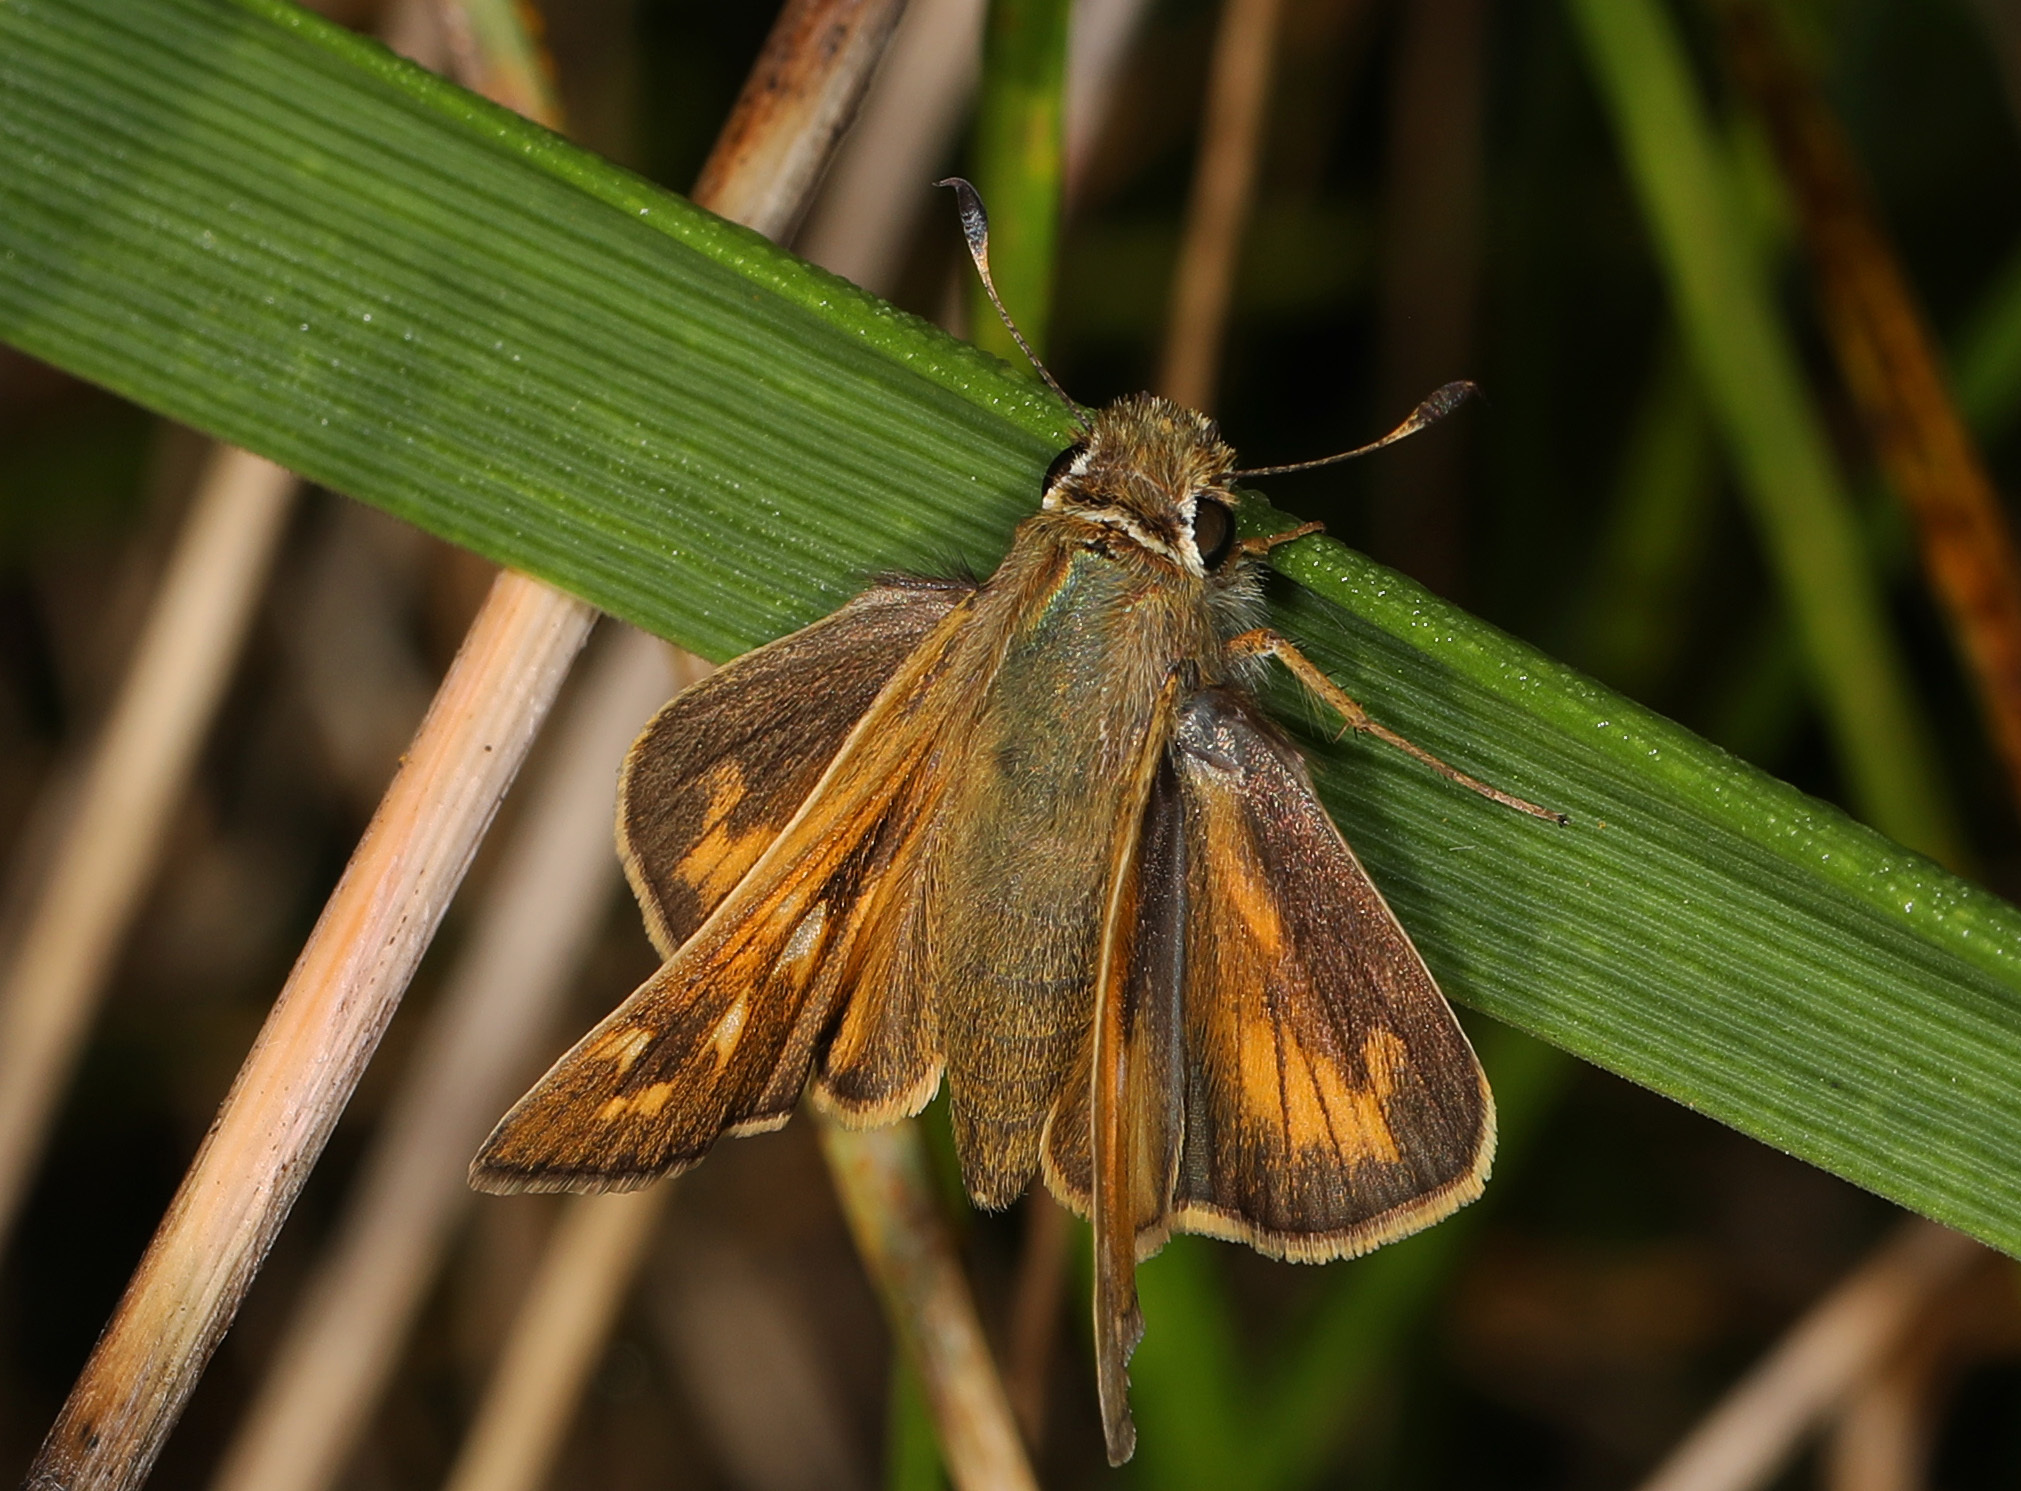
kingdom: Animalia
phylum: Arthropoda
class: Insecta
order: Lepidoptera
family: Hesperiidae
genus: Atalopedes
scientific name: Atalopedes
